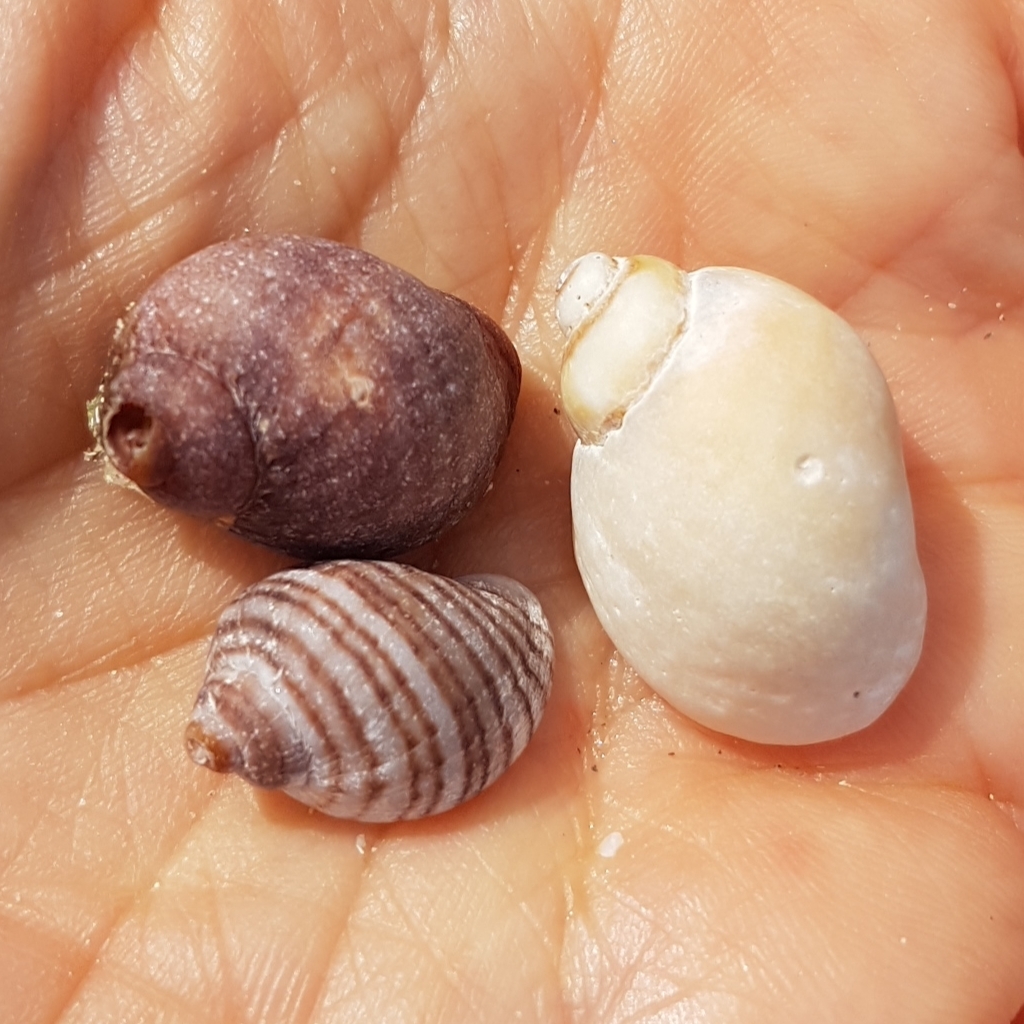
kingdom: Animalia
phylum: Mollusca
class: Gastropoda
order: Neogastropoda
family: Muricidae
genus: Nucella
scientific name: Nucella lapillus
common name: Dog whelk
